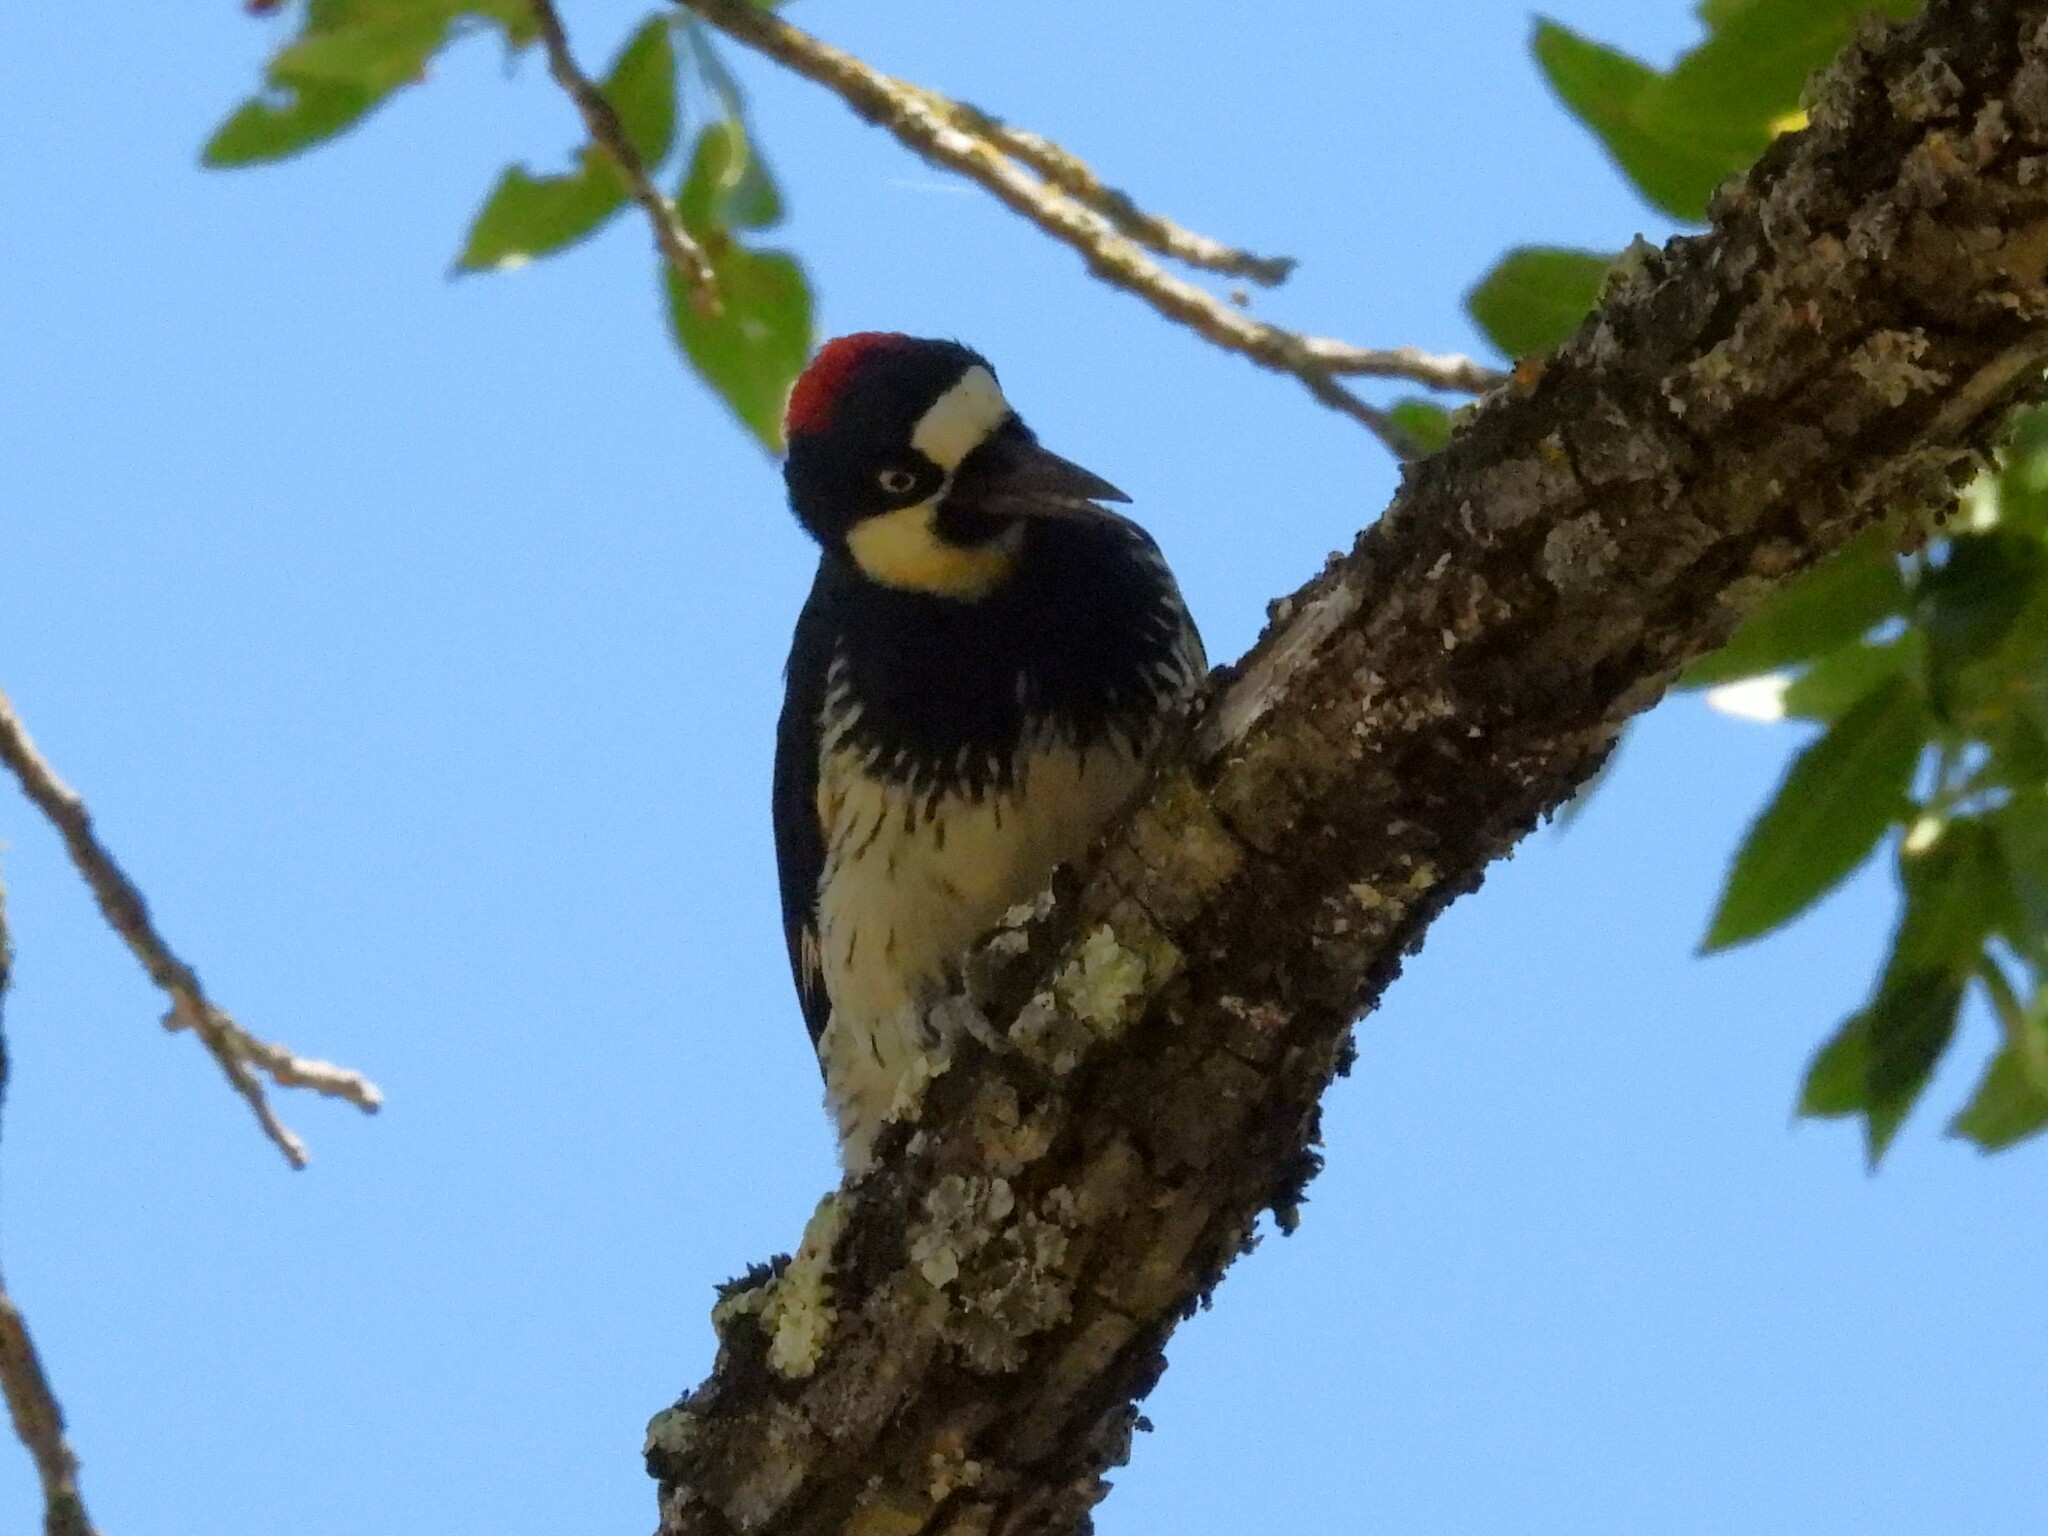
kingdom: Animalia
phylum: Chordata
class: Aves
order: Piciformes
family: Picidae
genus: Melanerpes
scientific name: Melanerpes formicivorus
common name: Acorn woodpecker
